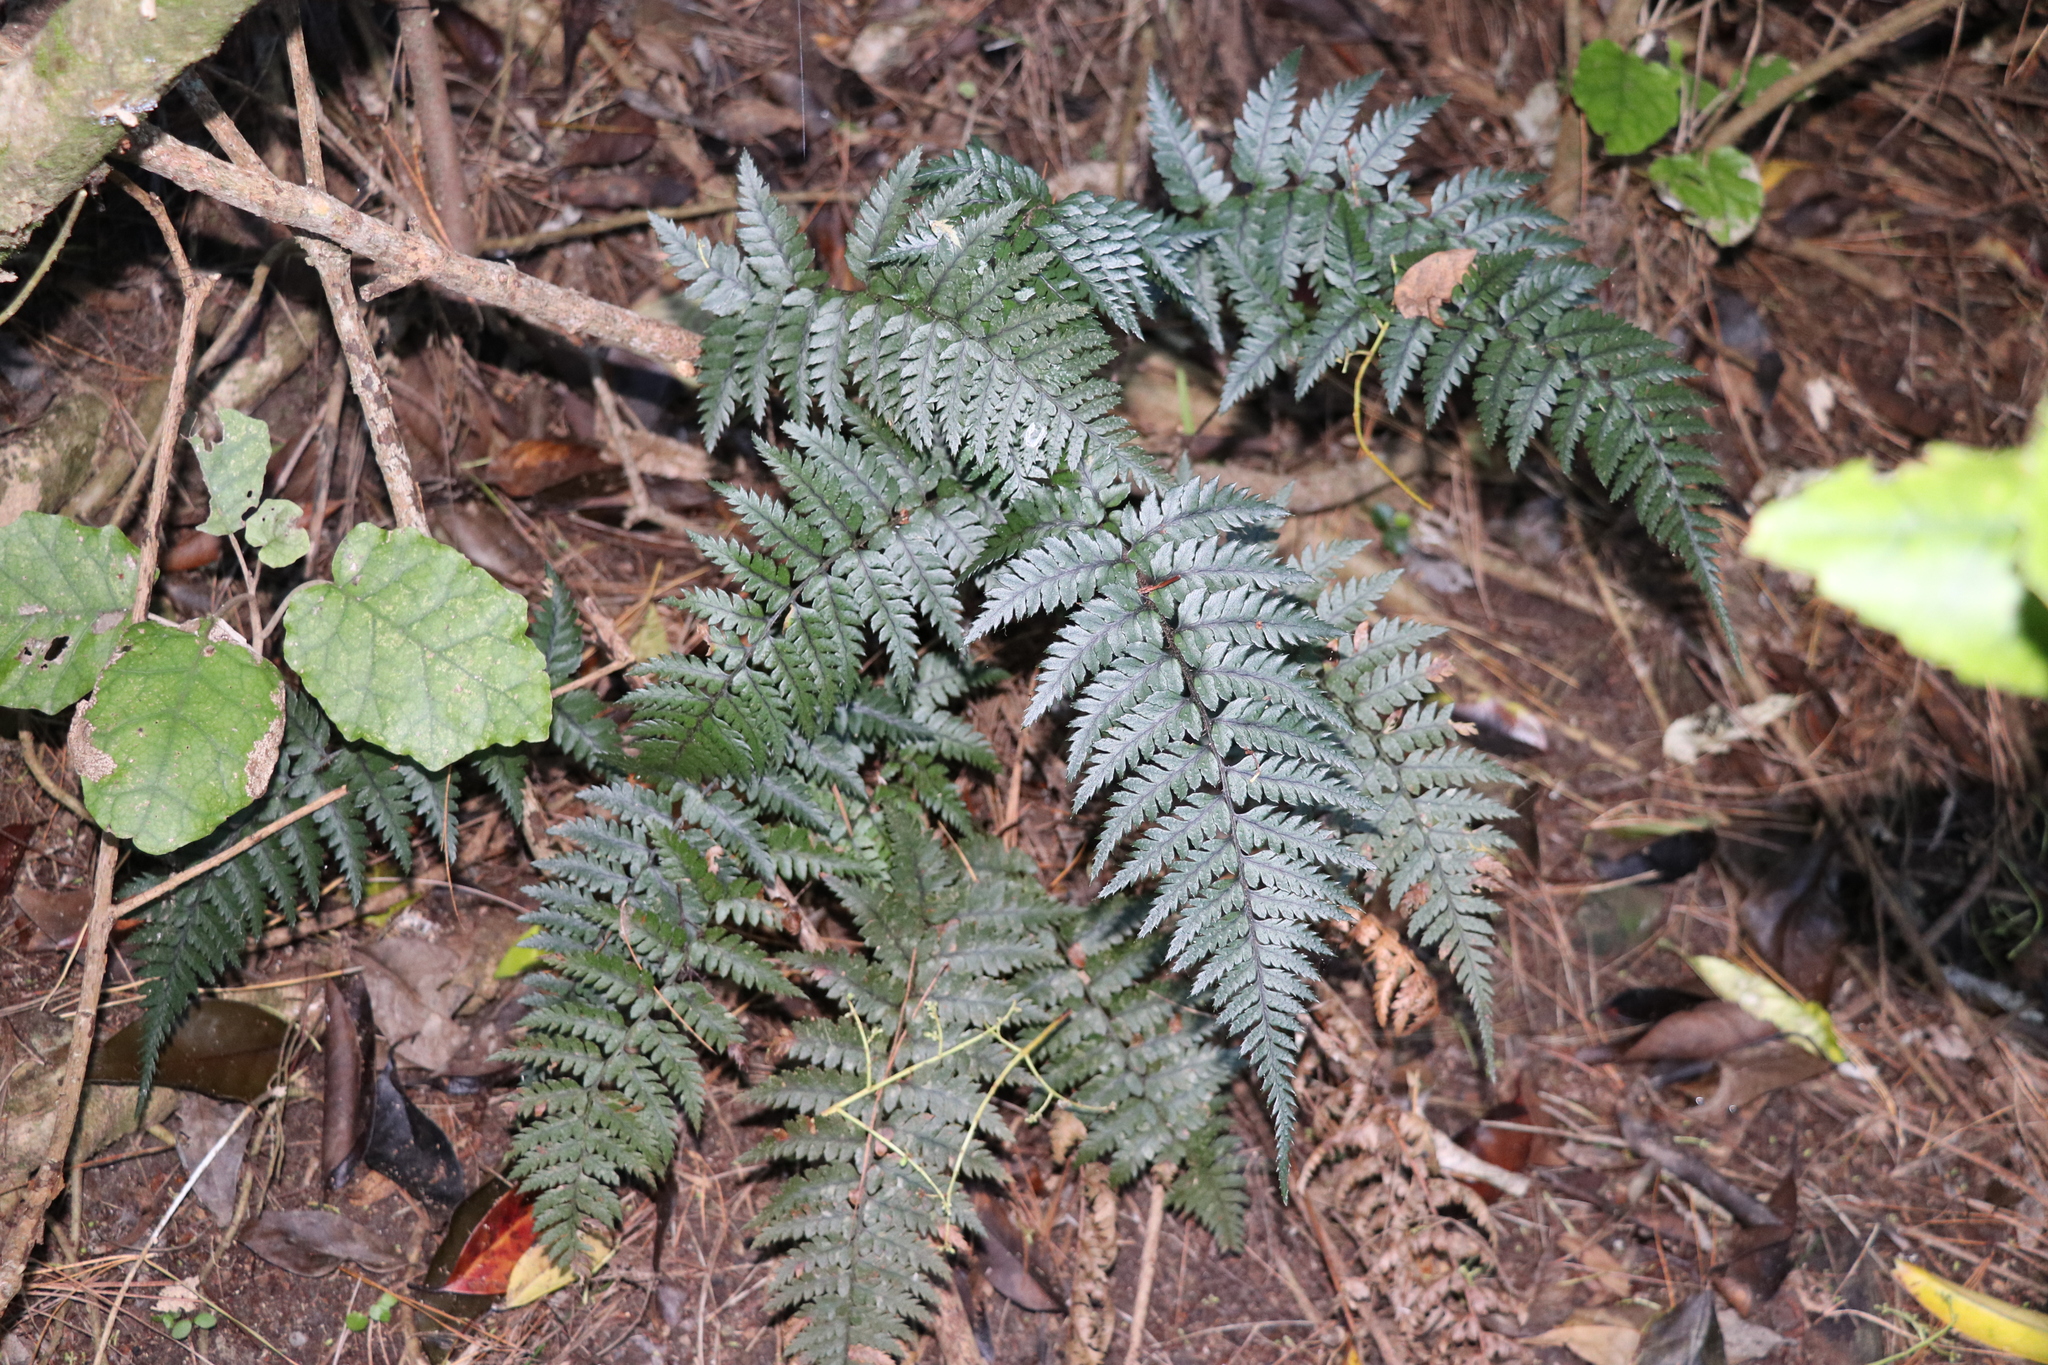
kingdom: Plantae
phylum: Tracheophyta
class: Polypodiopsida
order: Polypodiales
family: Dryopteridaceae
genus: Polystichum
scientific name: Polystichum neozelandicum
